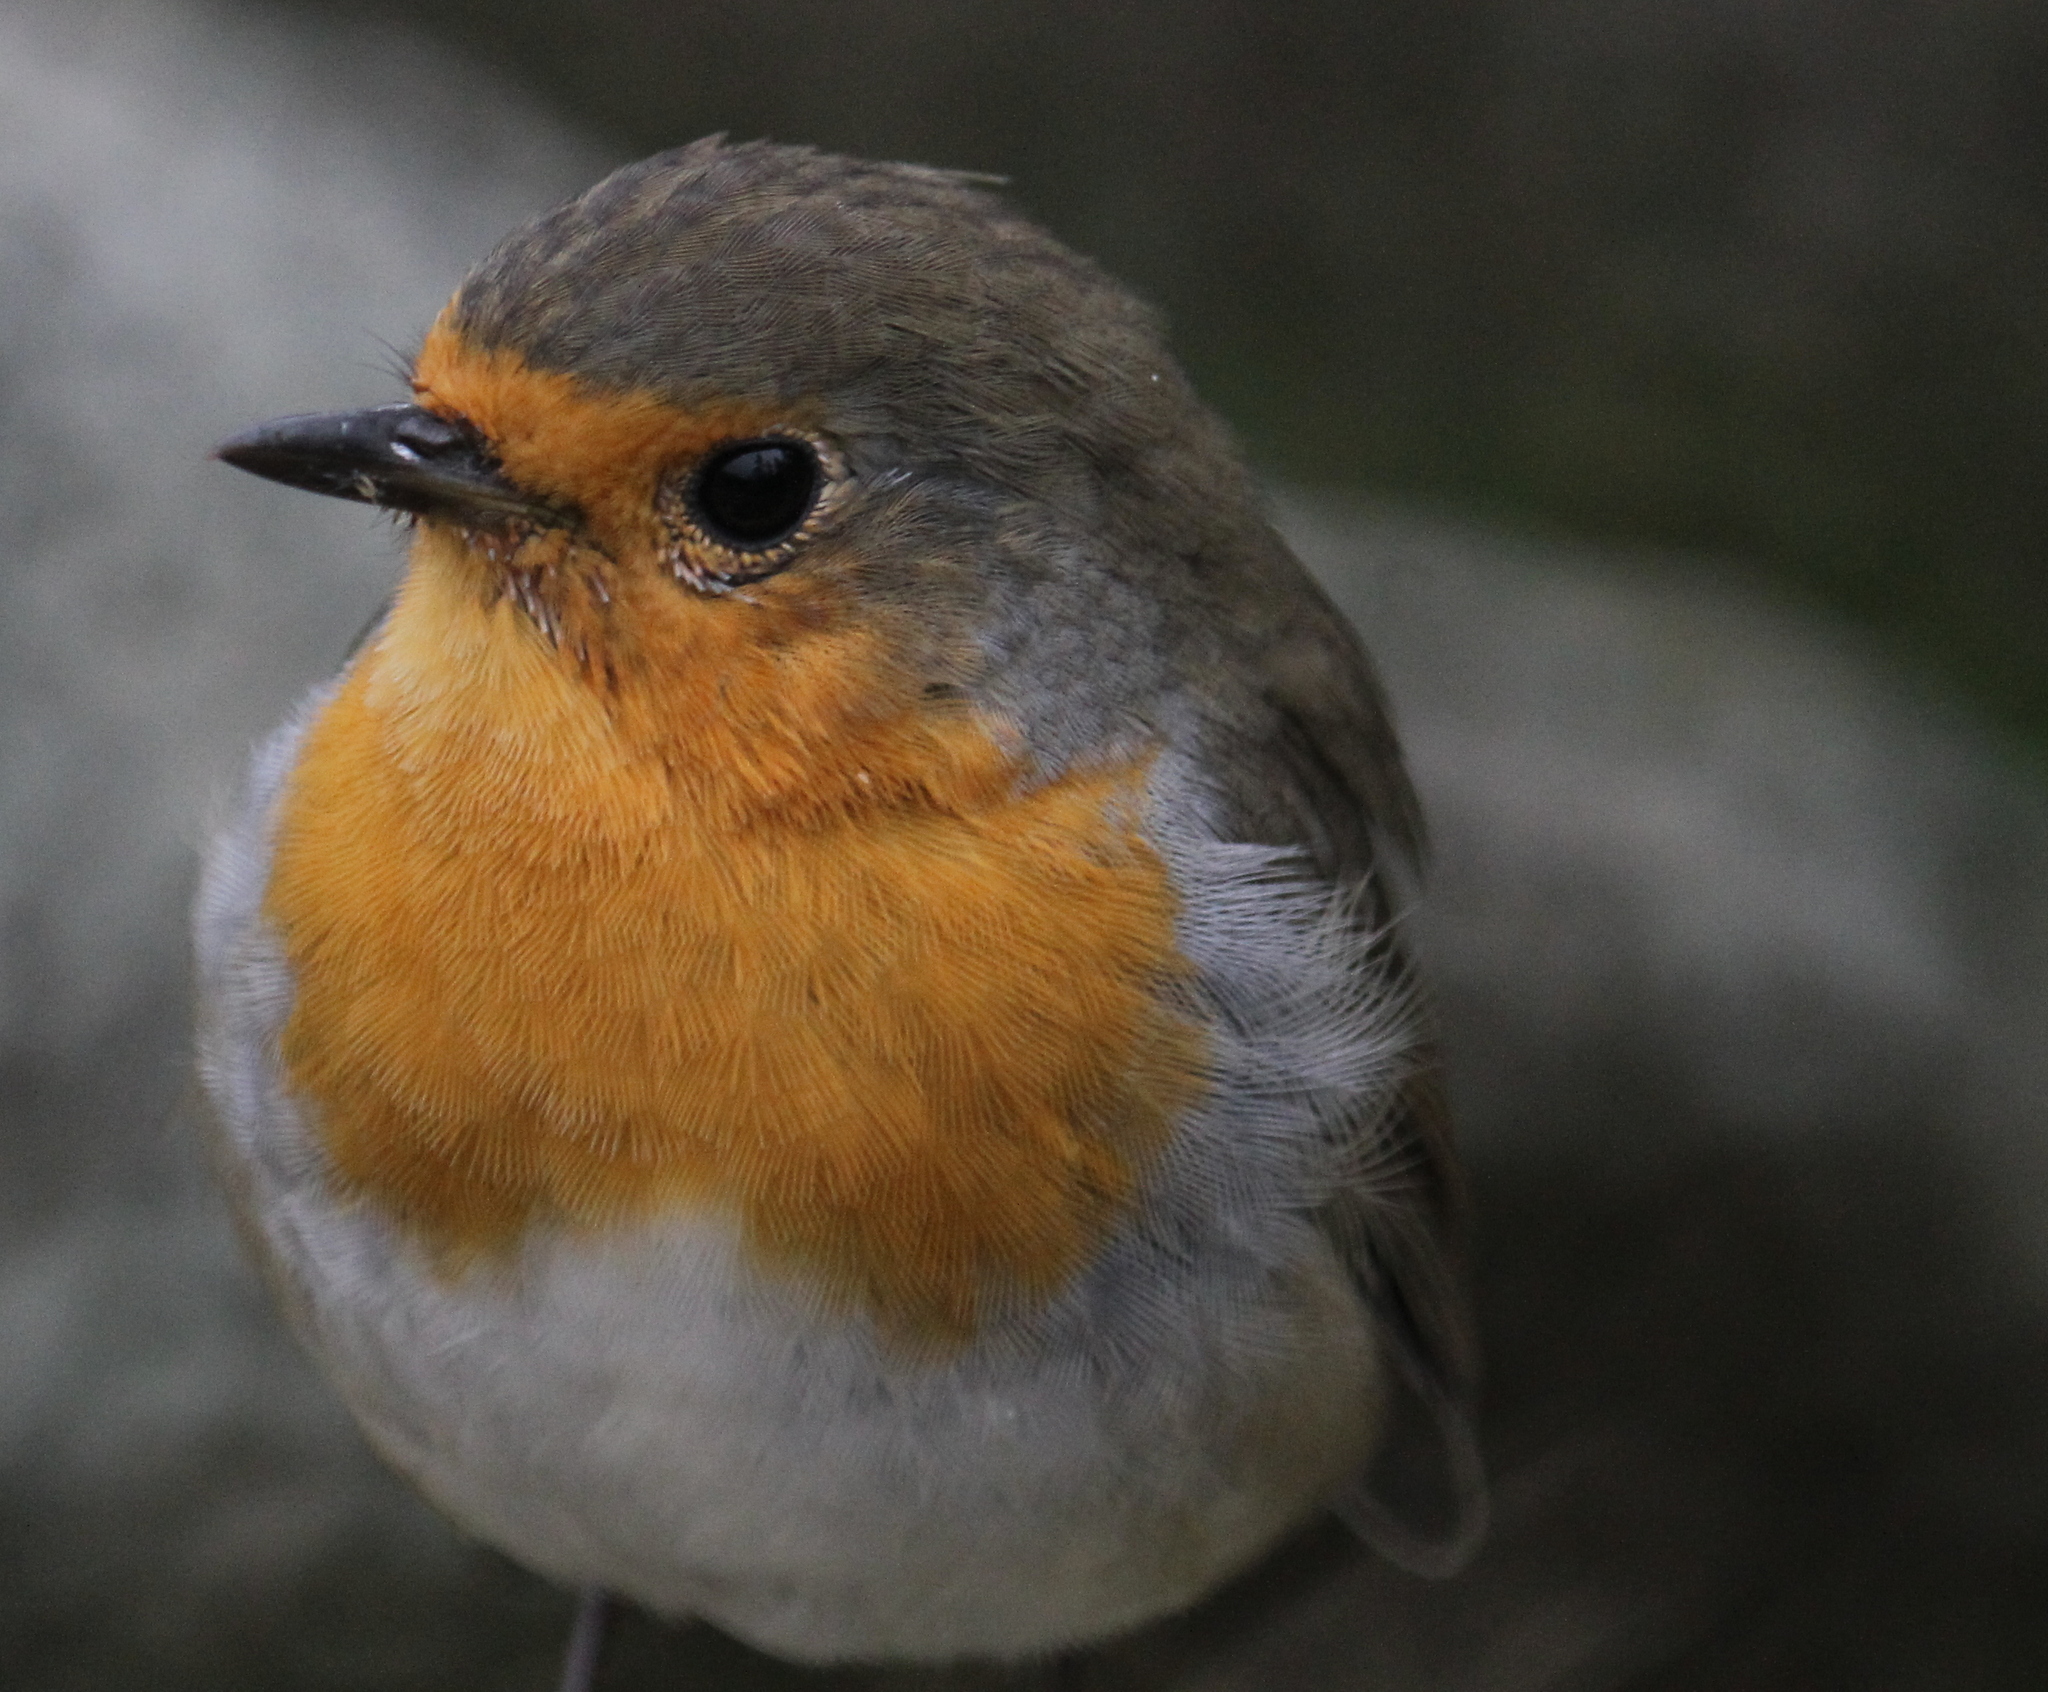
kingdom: Animalia
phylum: Chordata
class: Aves
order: Passeriformes
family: Muscicapidae
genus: Erithacus
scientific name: Erithacus rubecula
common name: European robin
